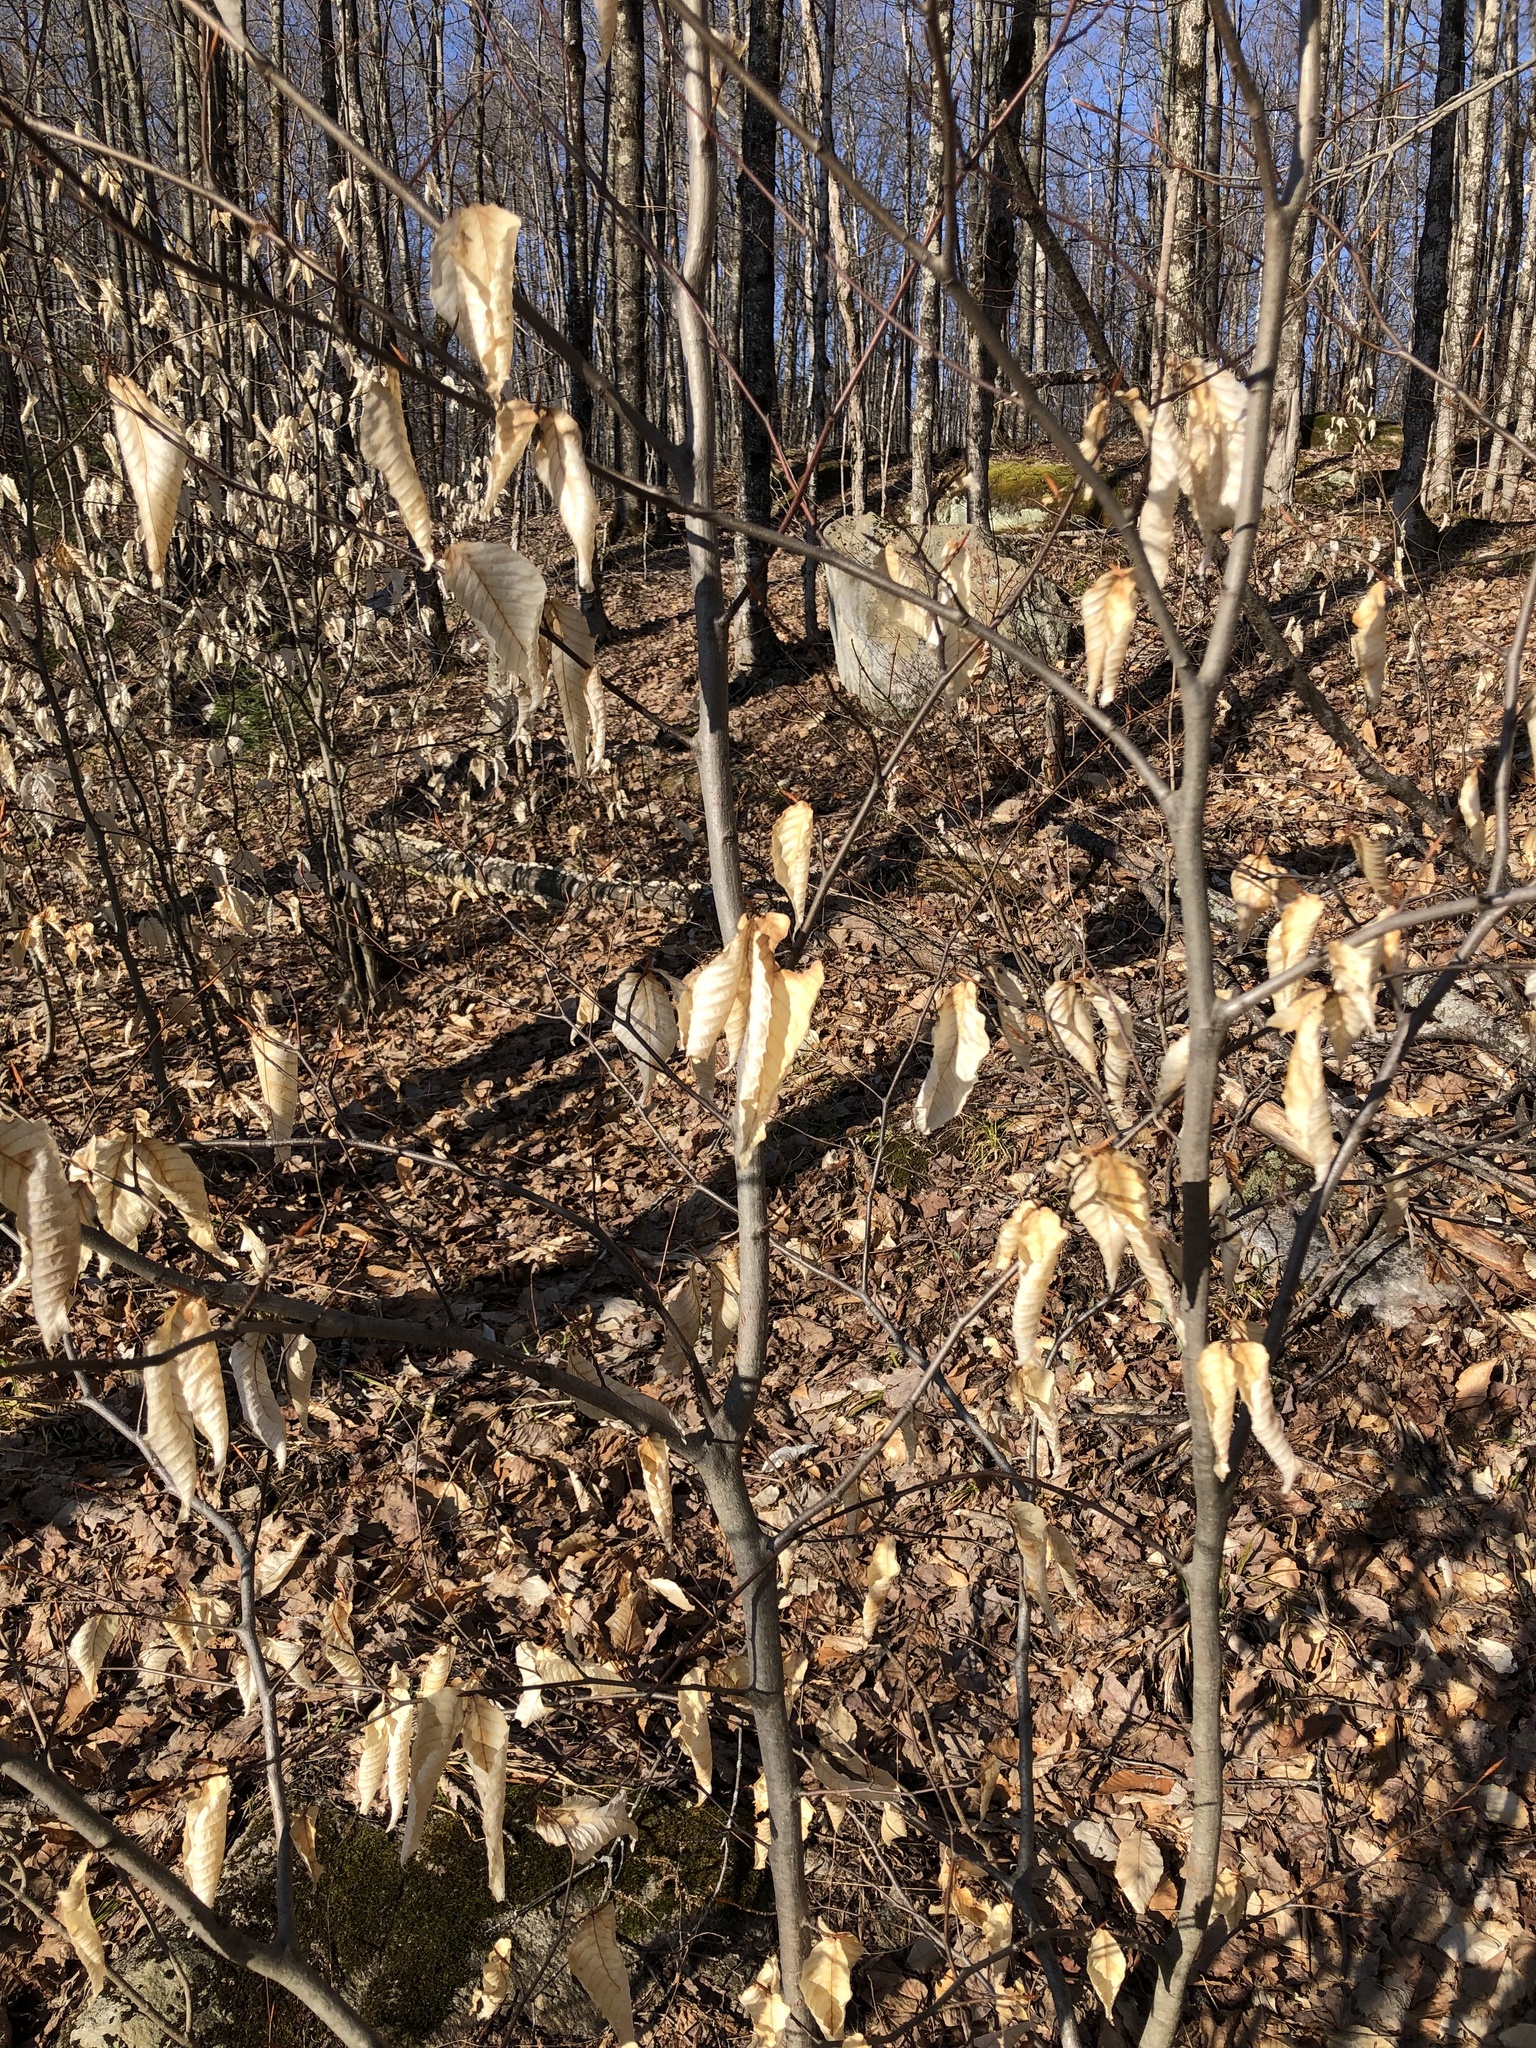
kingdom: Plantae
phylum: Tracheophyta
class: Magnoliopsida
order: Fagales
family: Fagaceae
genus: Fagus
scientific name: Fagus grandifolia
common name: American beech
